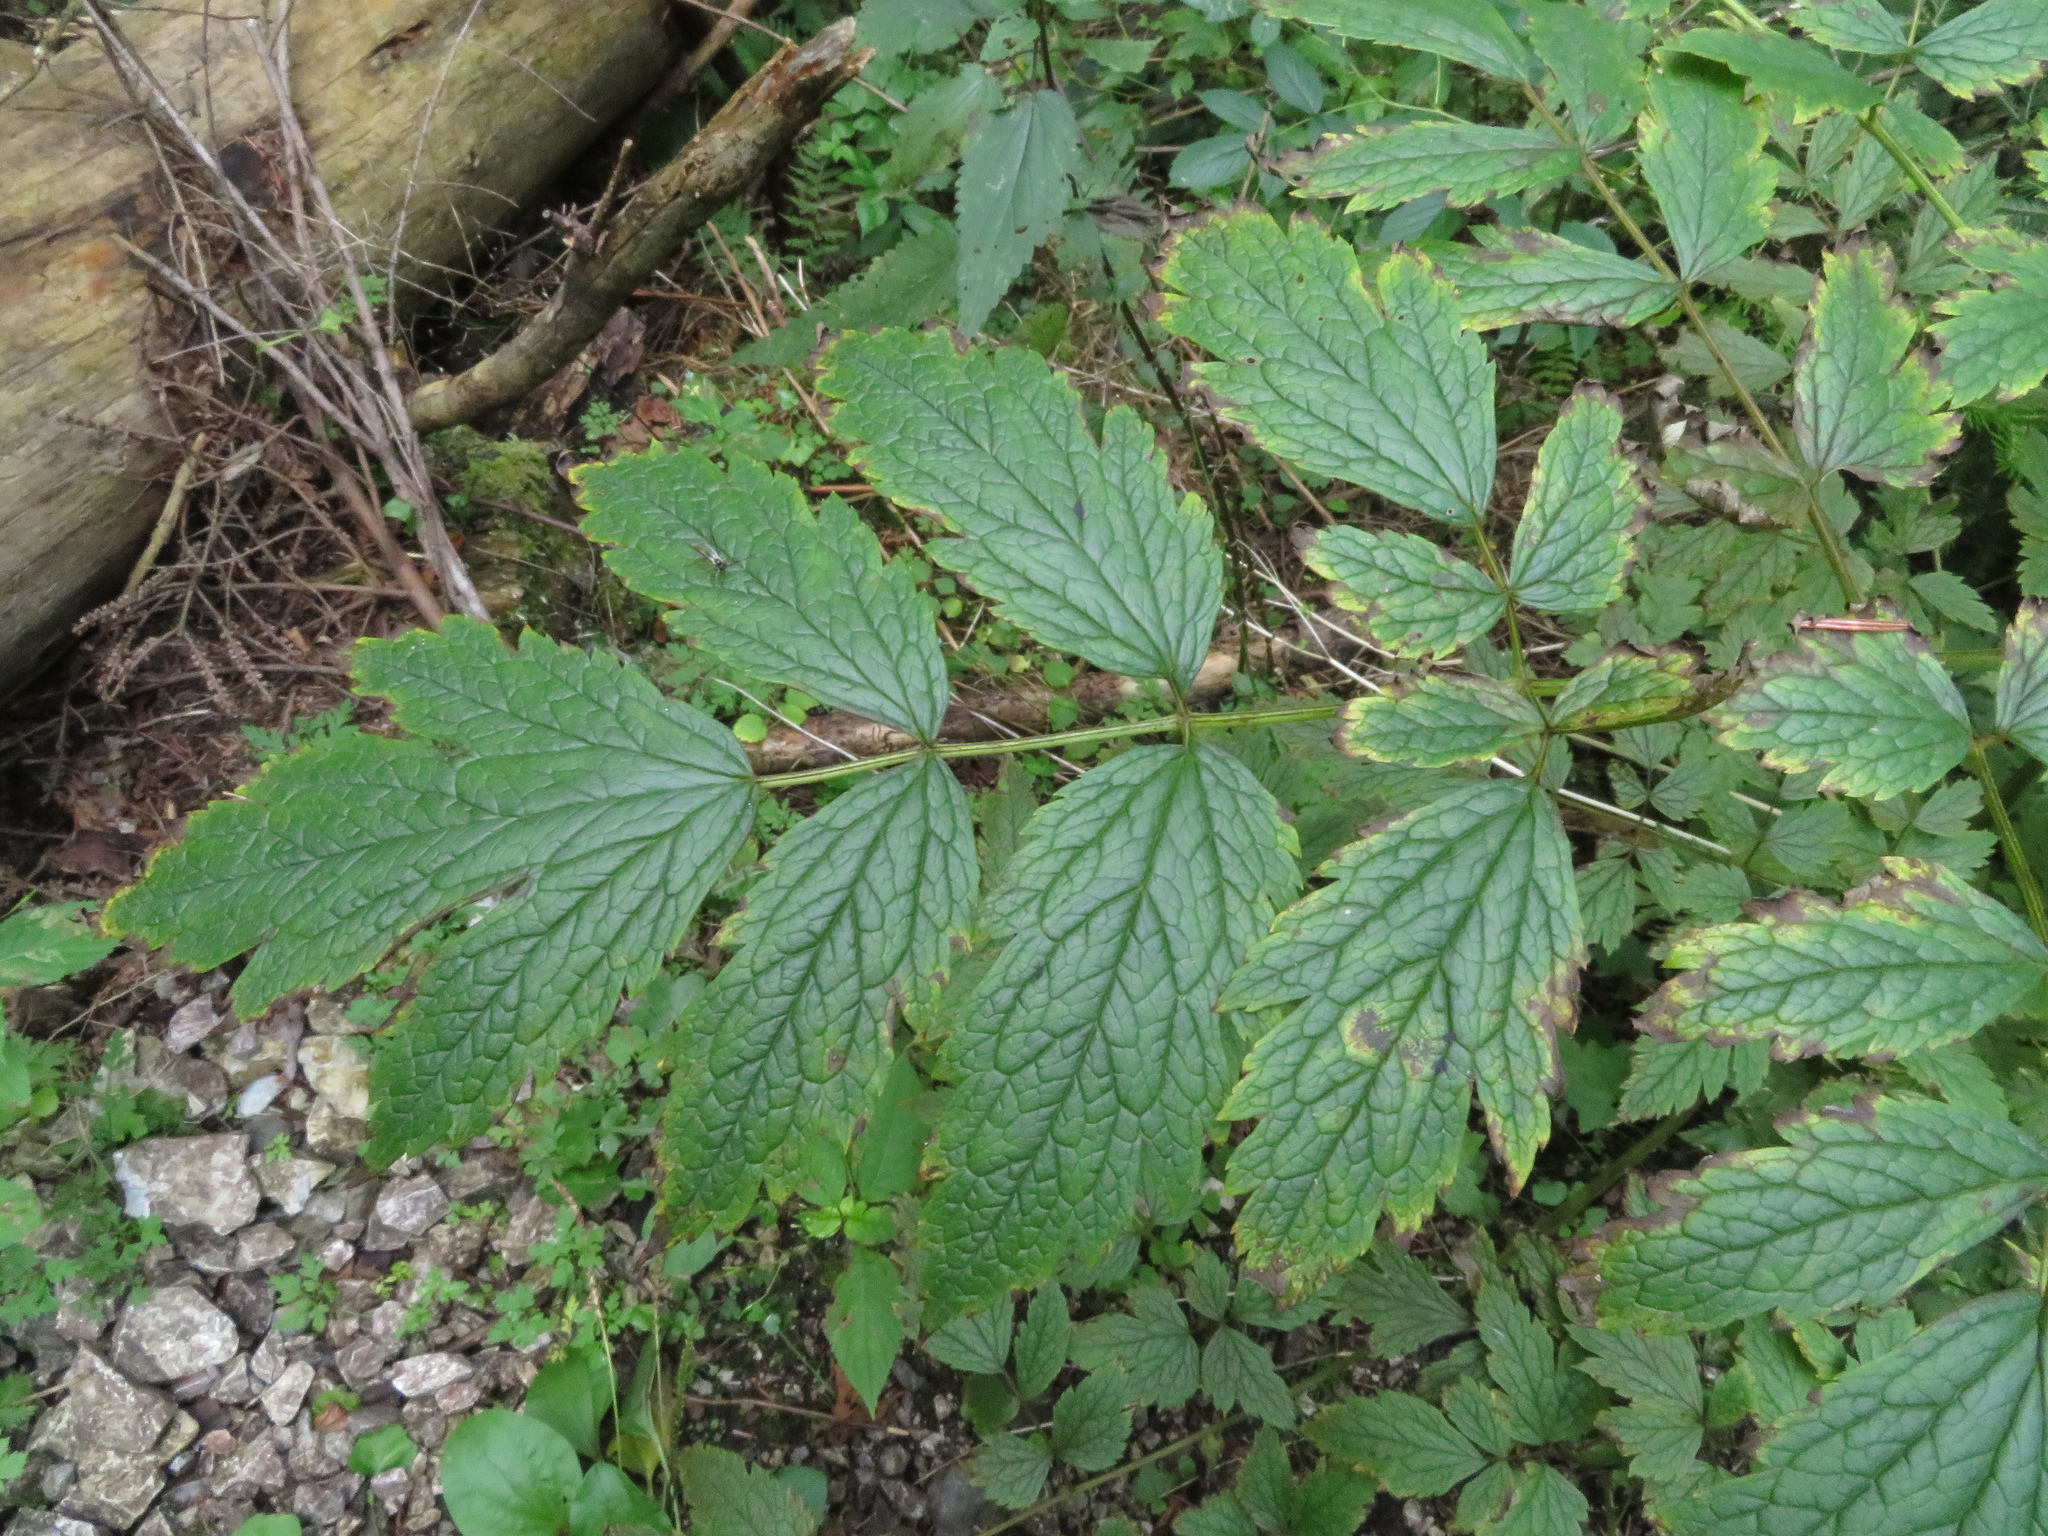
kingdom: Plantae
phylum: Tracheophyta
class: Magnoliopsida
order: Ranunculales
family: Ranunculaceae
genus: Actaea
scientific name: Actaea europaea
